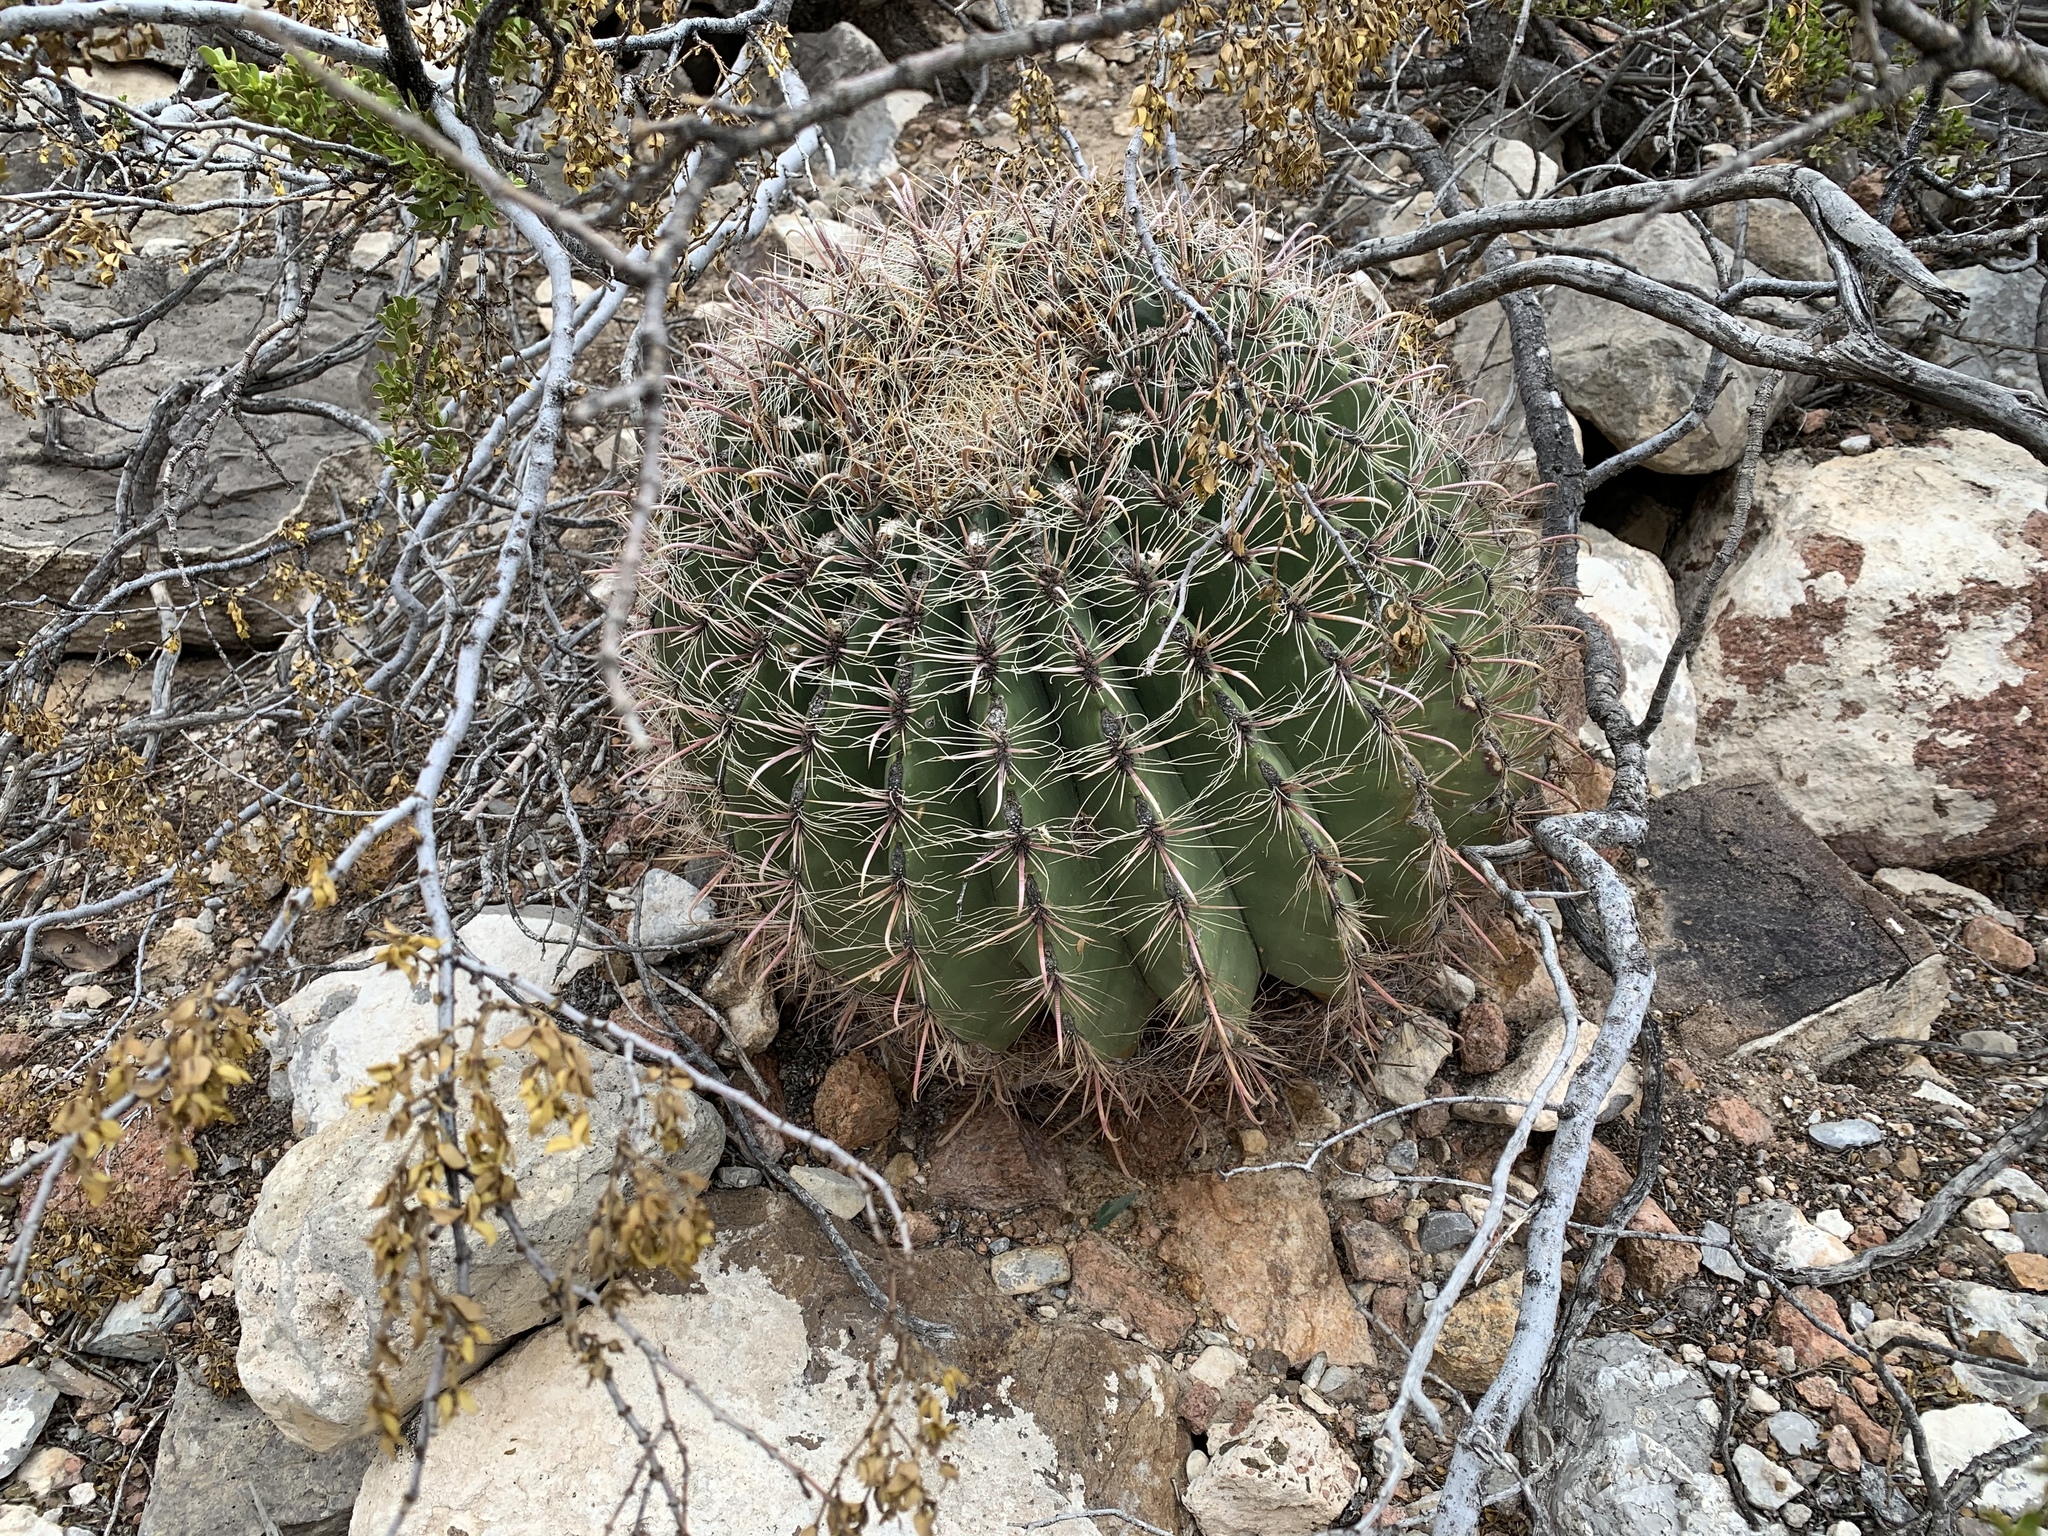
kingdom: Plantae
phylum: Tracheophyta
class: Magnoliopsida
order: Caryophyllales
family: Cactaceae
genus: Ferocactus
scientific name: Ferocactus wislizeni
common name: Candy barrel cactus
